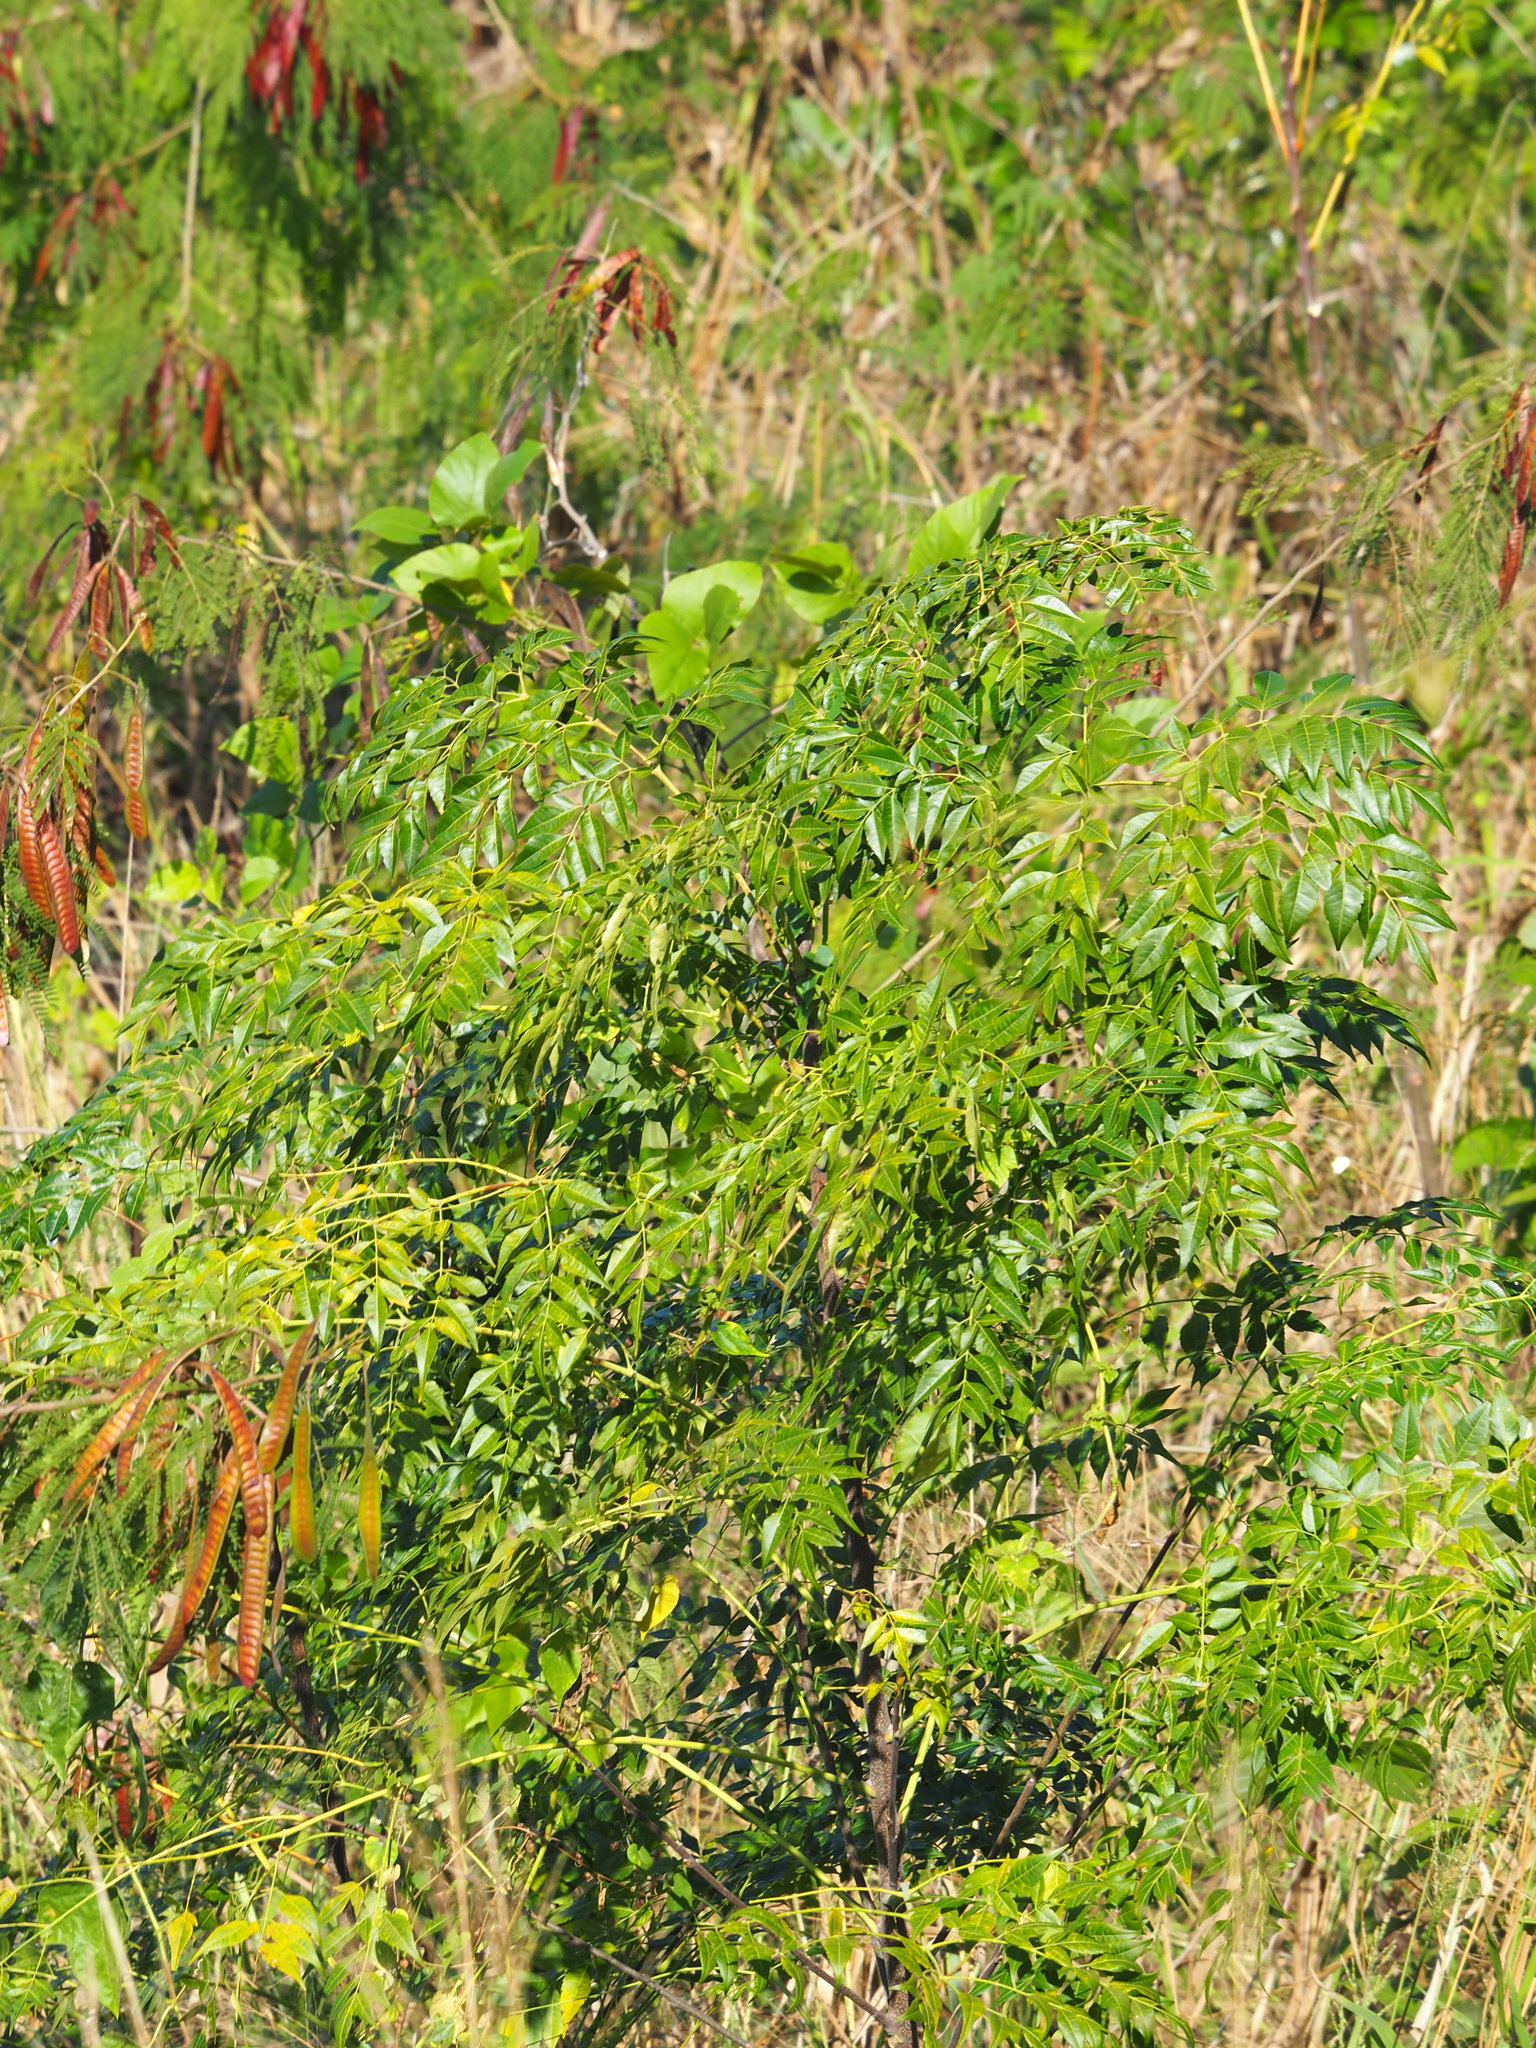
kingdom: Plantae
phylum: Tracheophyta
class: Magnoliopsida
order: Sapindales
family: Meliaceae
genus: Melia
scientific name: Melia azedarach
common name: Chinaberrytree
